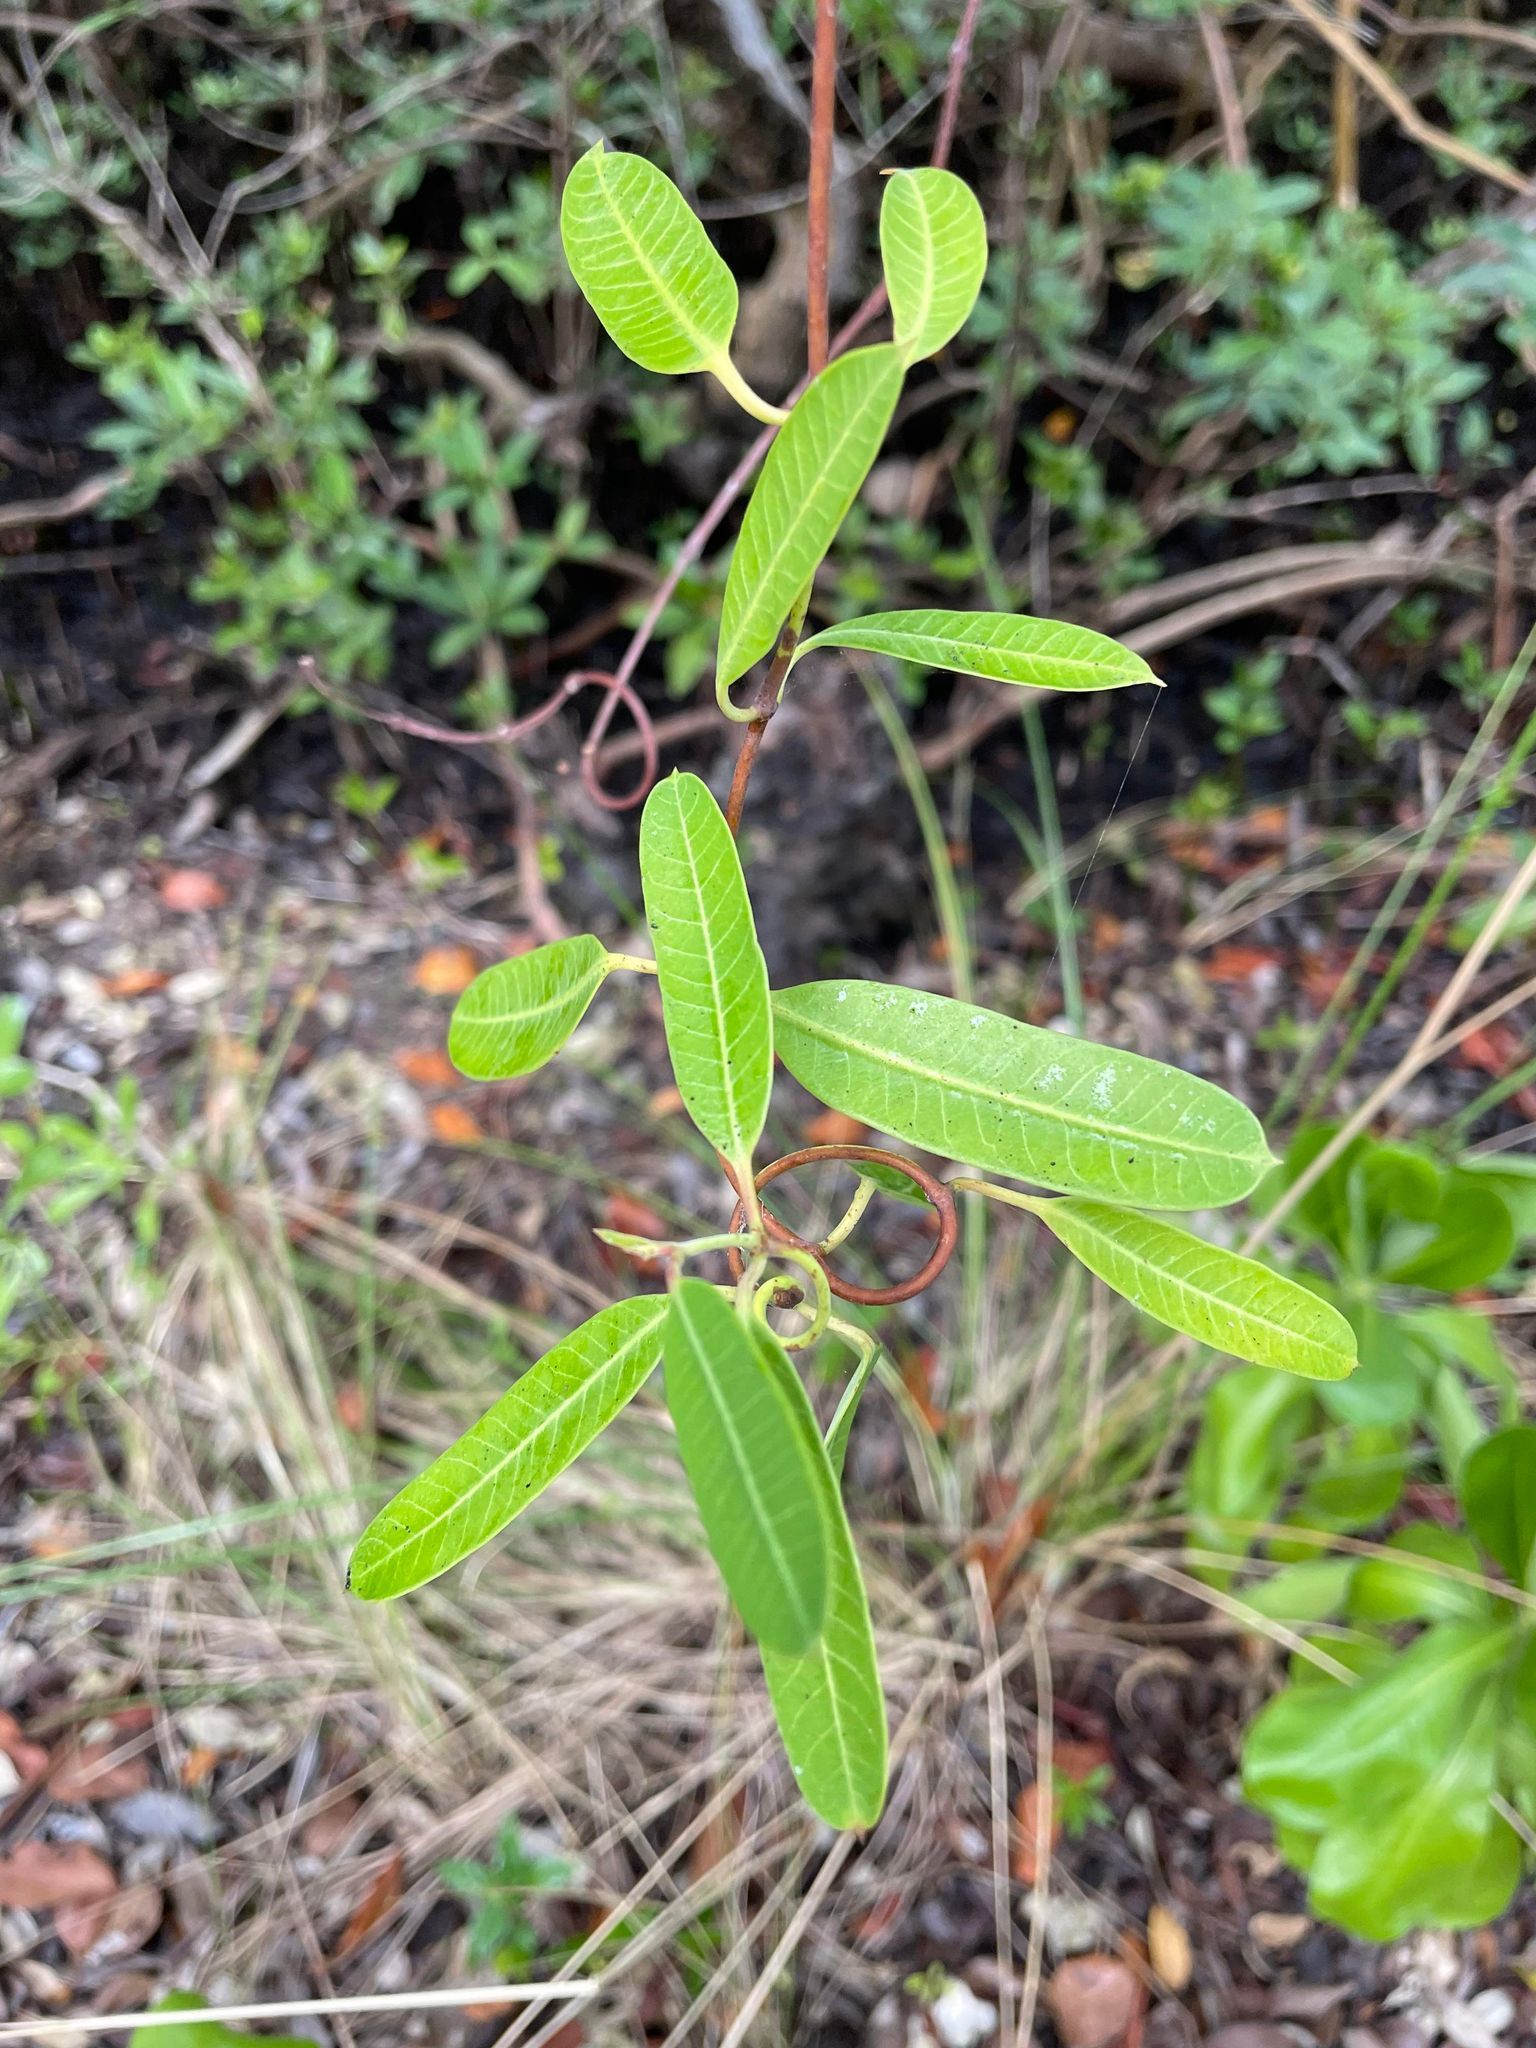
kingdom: Plantae
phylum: Tracheophyta
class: Magnoliopsida
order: Gentianales
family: Apocynaceae
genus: Rhabdadenia
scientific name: Rhabdadenia biflora
